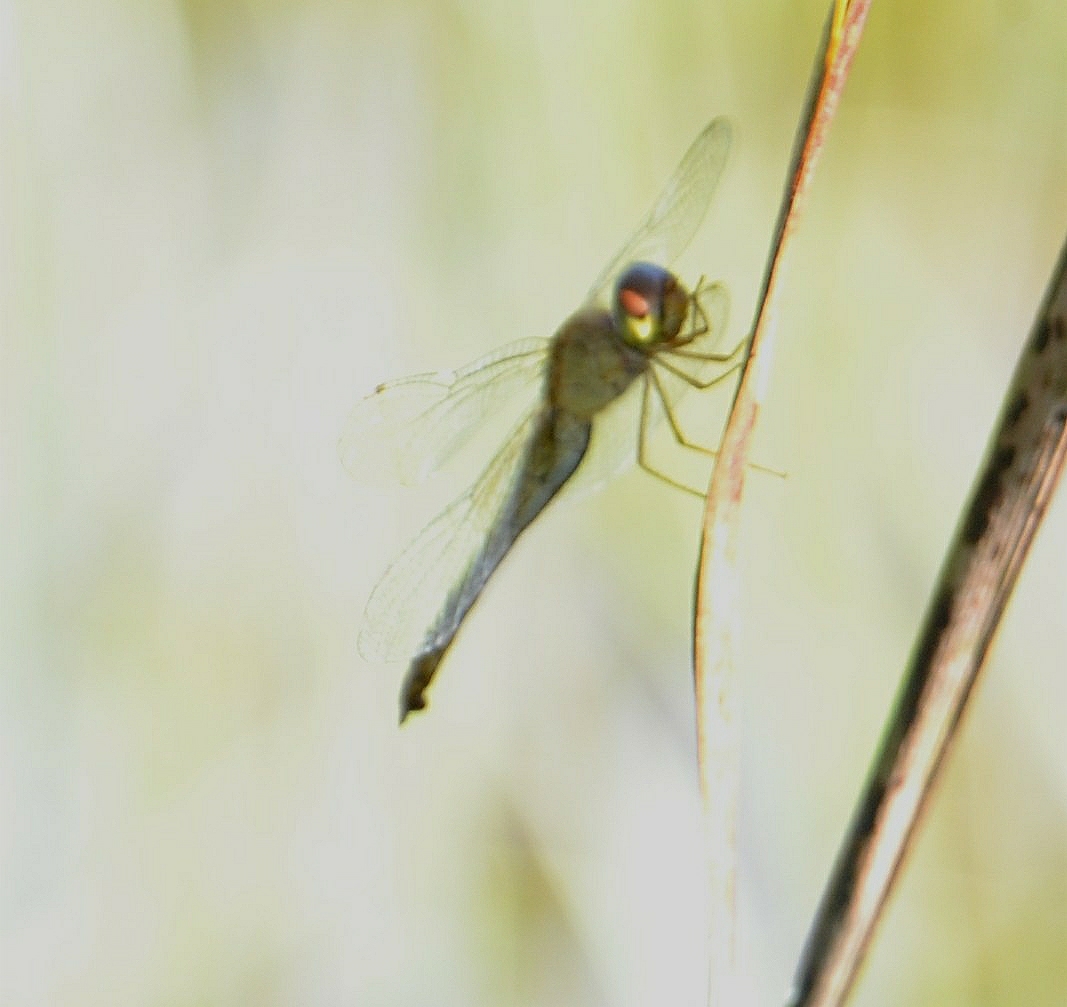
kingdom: Animalia
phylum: Arthropoda
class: Insecta
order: Odonata
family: Libellulidae
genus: Tholymis
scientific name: Tholymis tillarga
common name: Coral-tailed cloud wing
